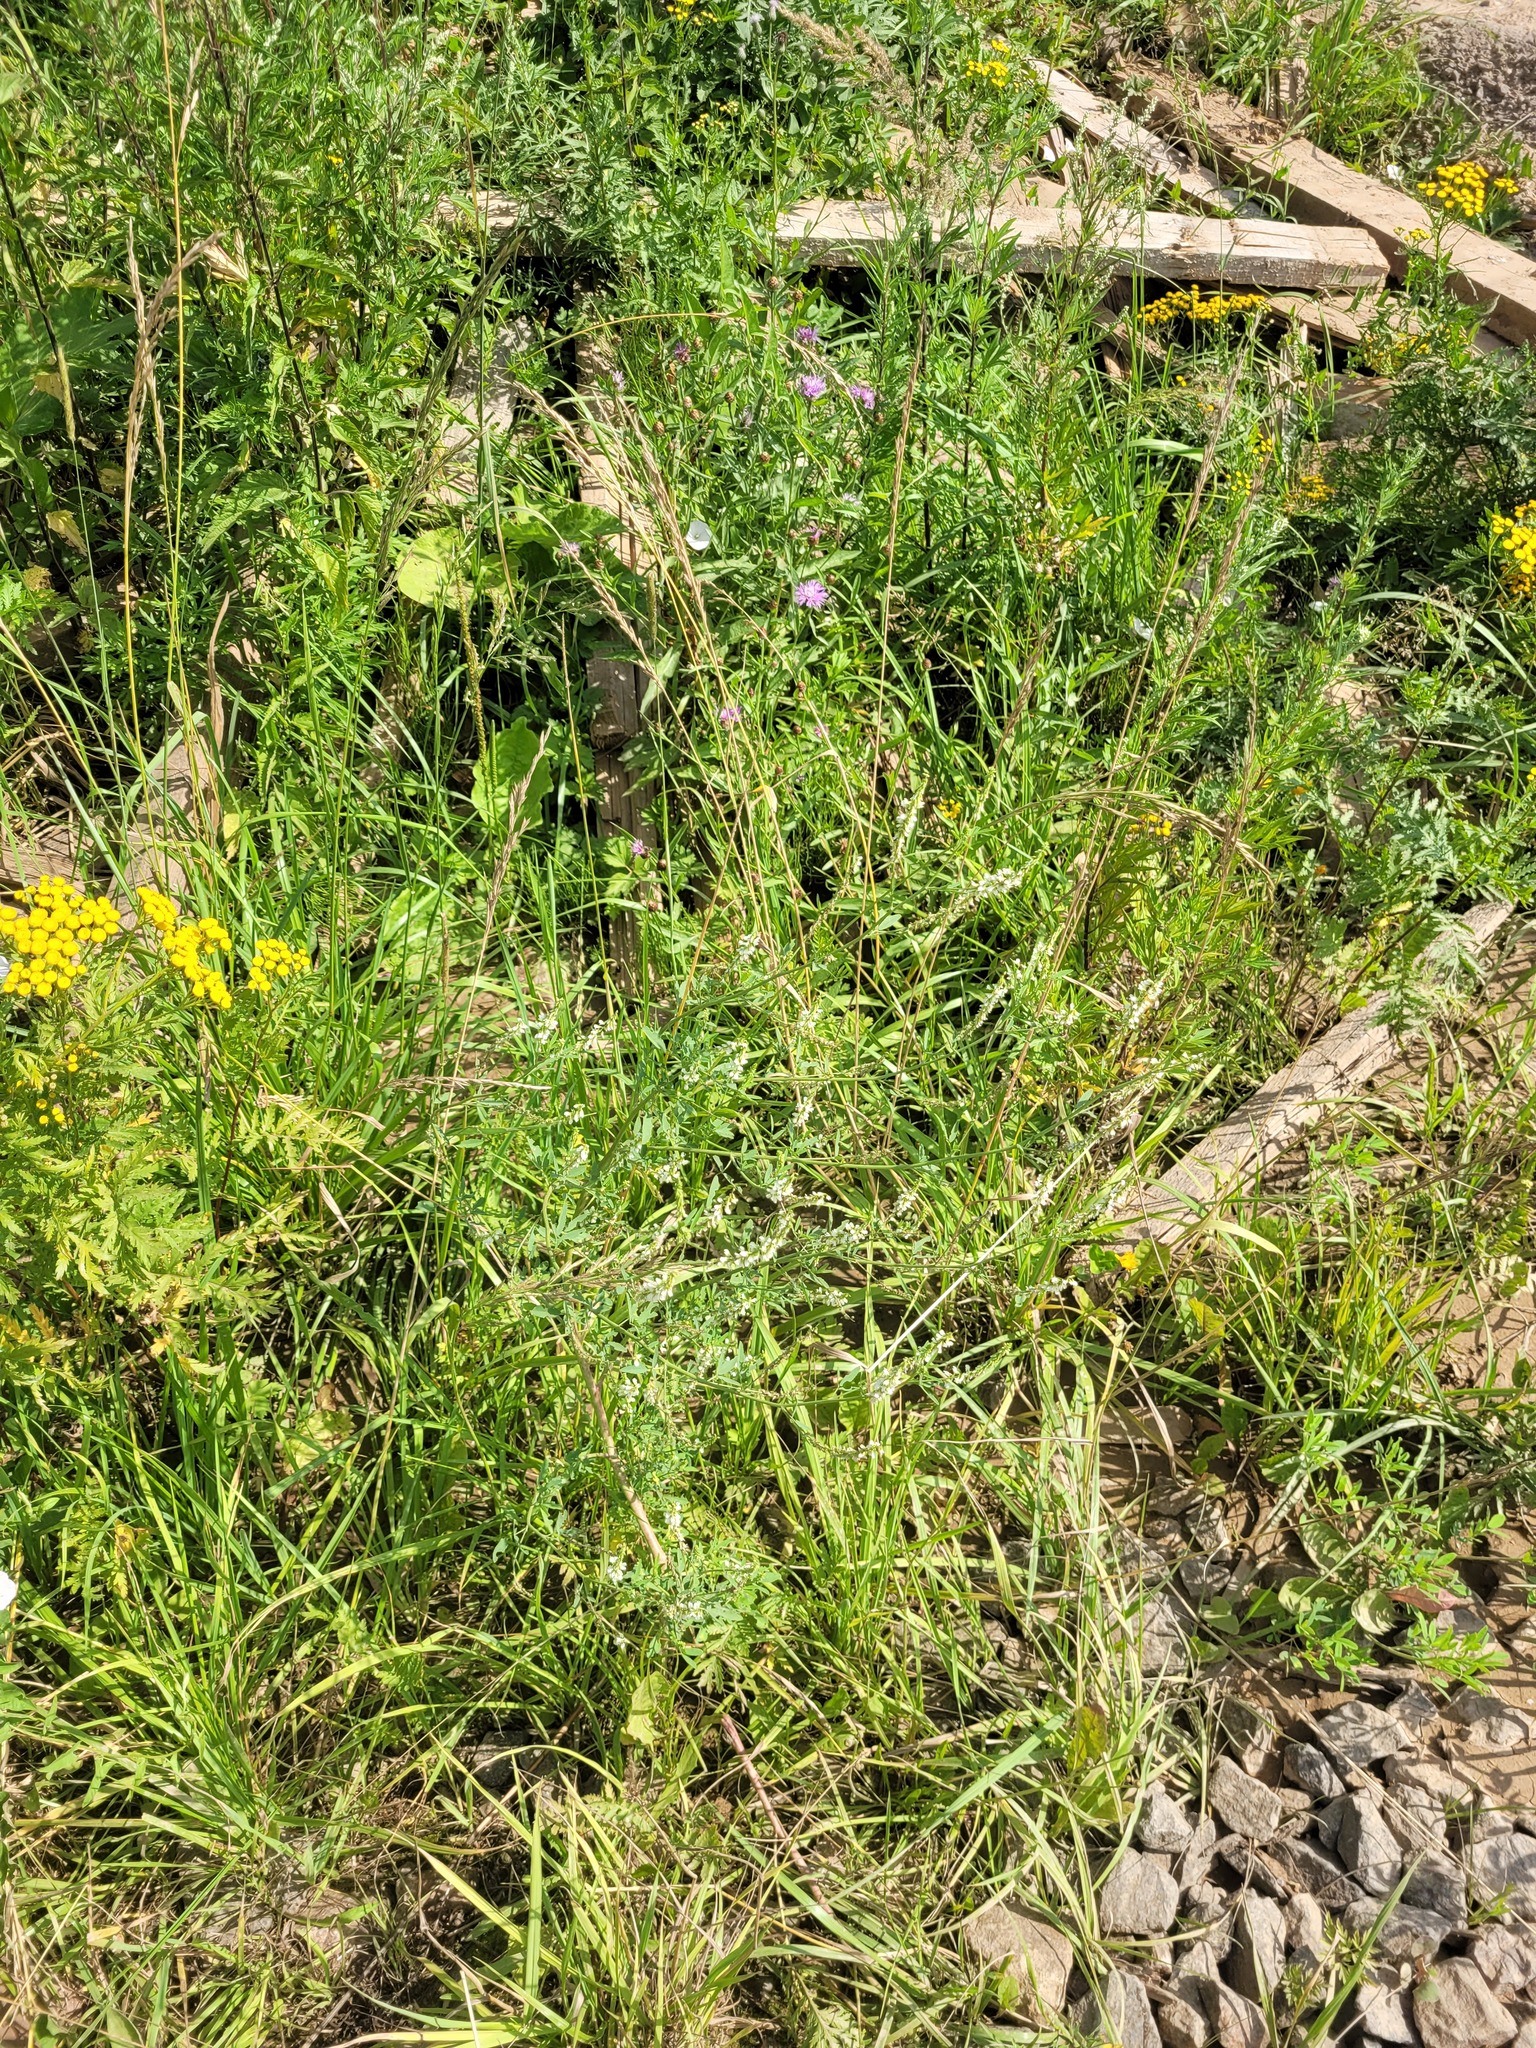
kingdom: Plantae
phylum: Tracheophyta
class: Magnoliopsida
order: Fabales
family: Fabaceae
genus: Melilotus
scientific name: Melilotus albus
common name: White melilot
